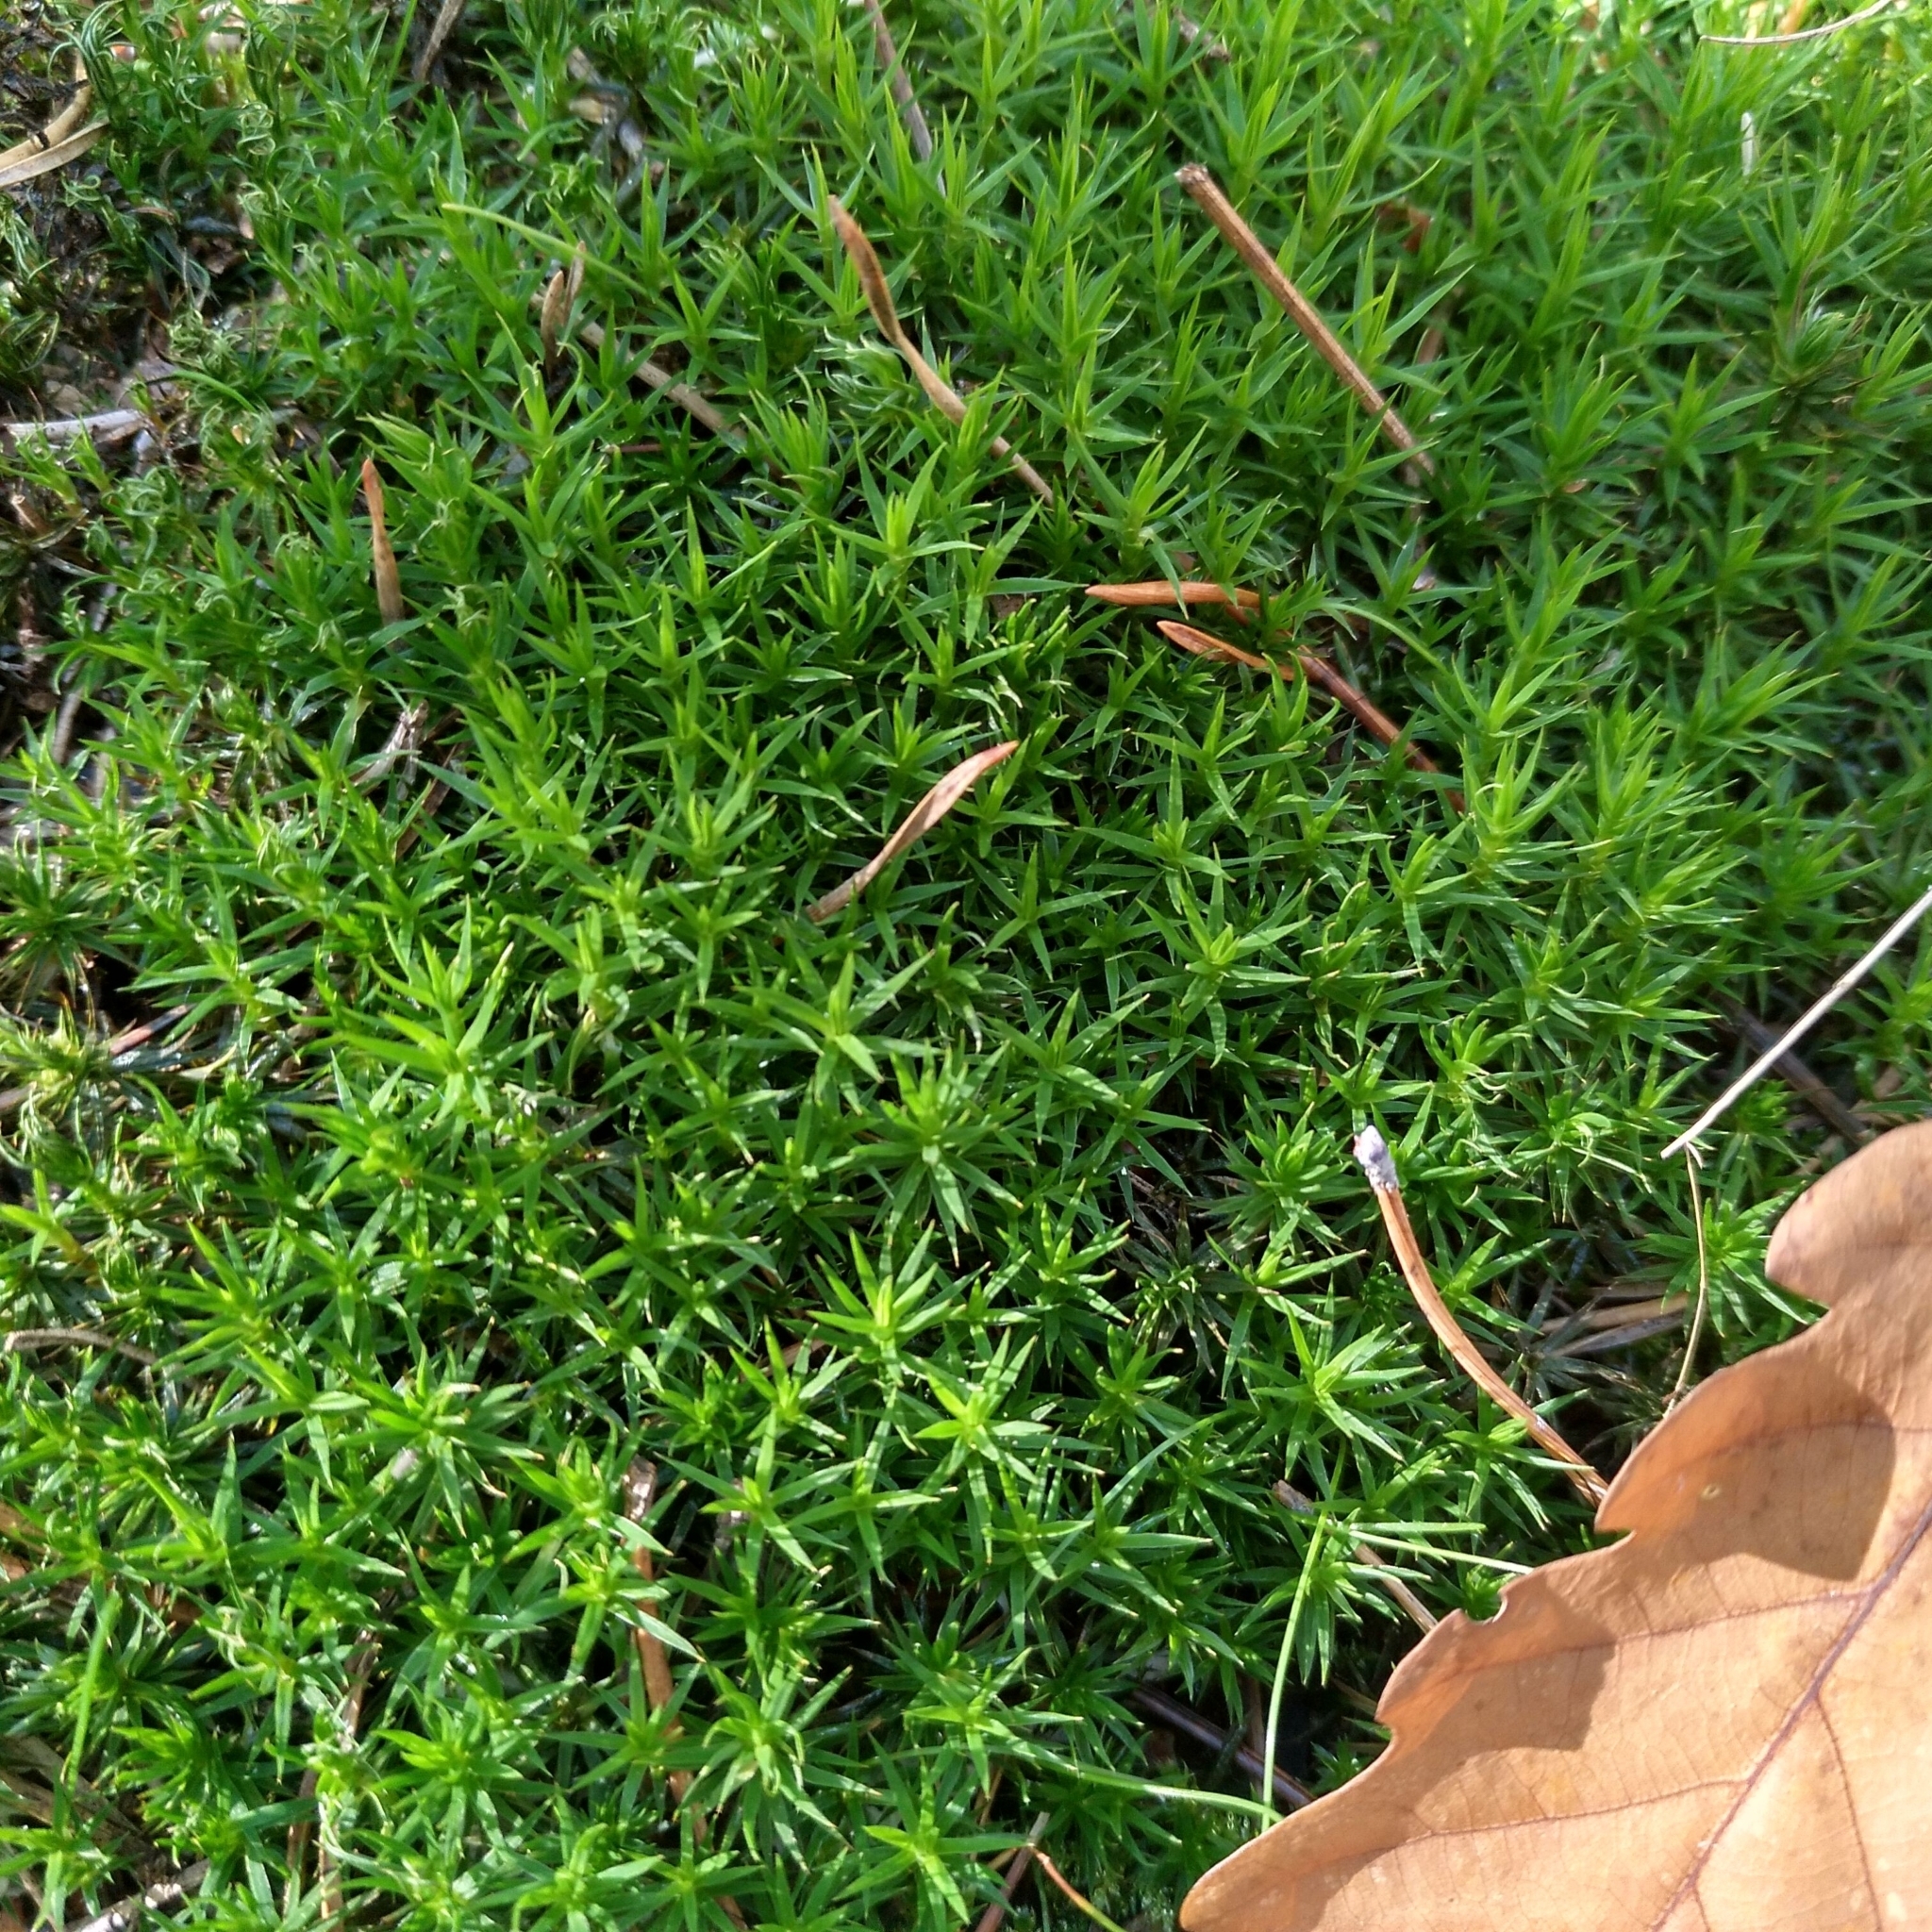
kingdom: Plantae
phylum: Bryophyta
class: Polytrichopsida
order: Polytrichales
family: Polytrichaceae
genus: Polytrichum
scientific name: Polytrichum formosum
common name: Bank haircap moss
